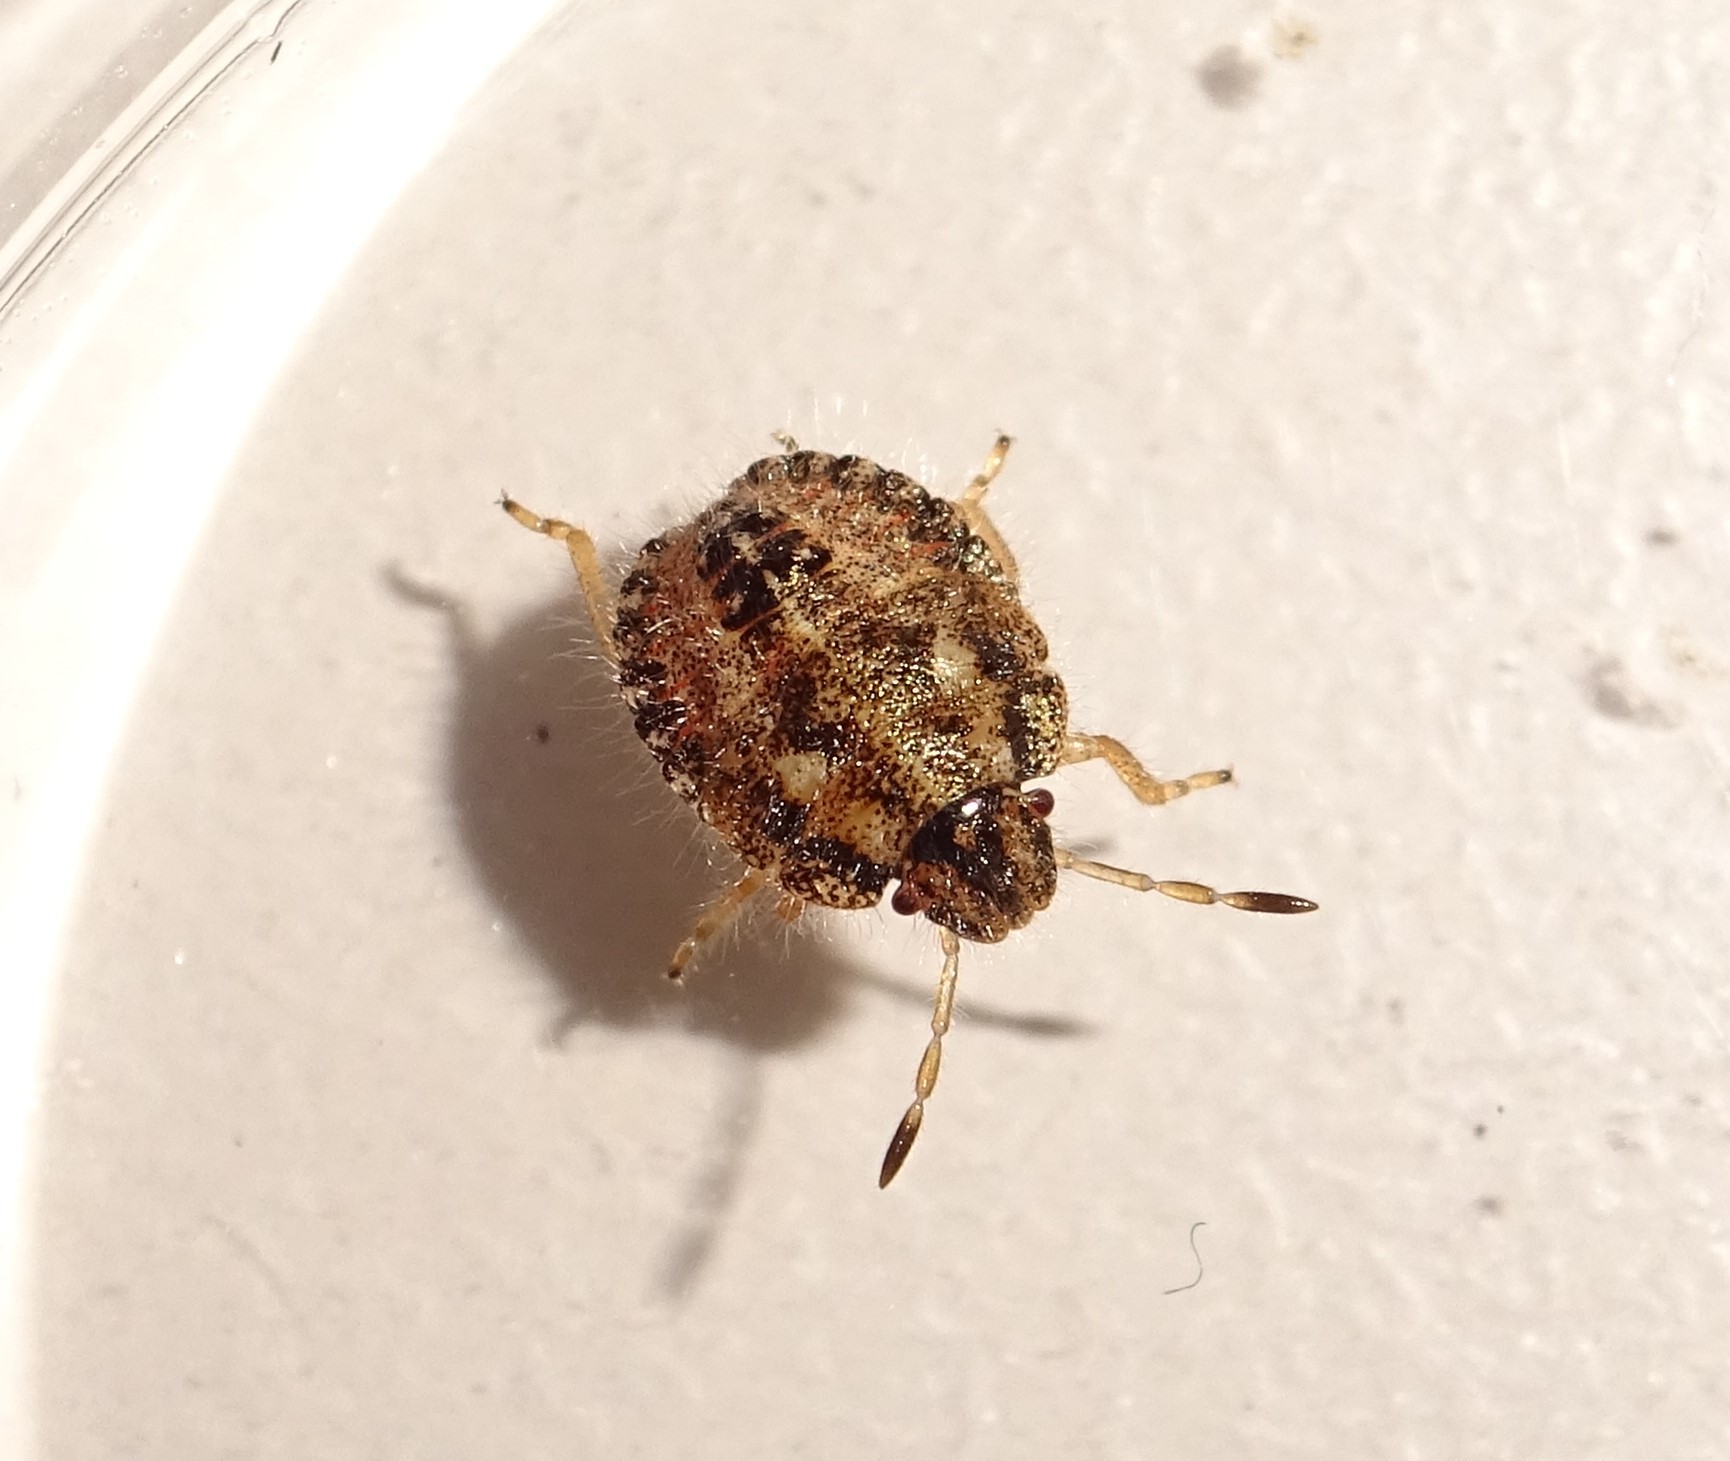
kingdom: Animalia
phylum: Arthropoda
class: Insecta
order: Hemiptera
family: Pentatomidae
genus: Dolycoris
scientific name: Dolycoris baccarum
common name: Sloe bug
